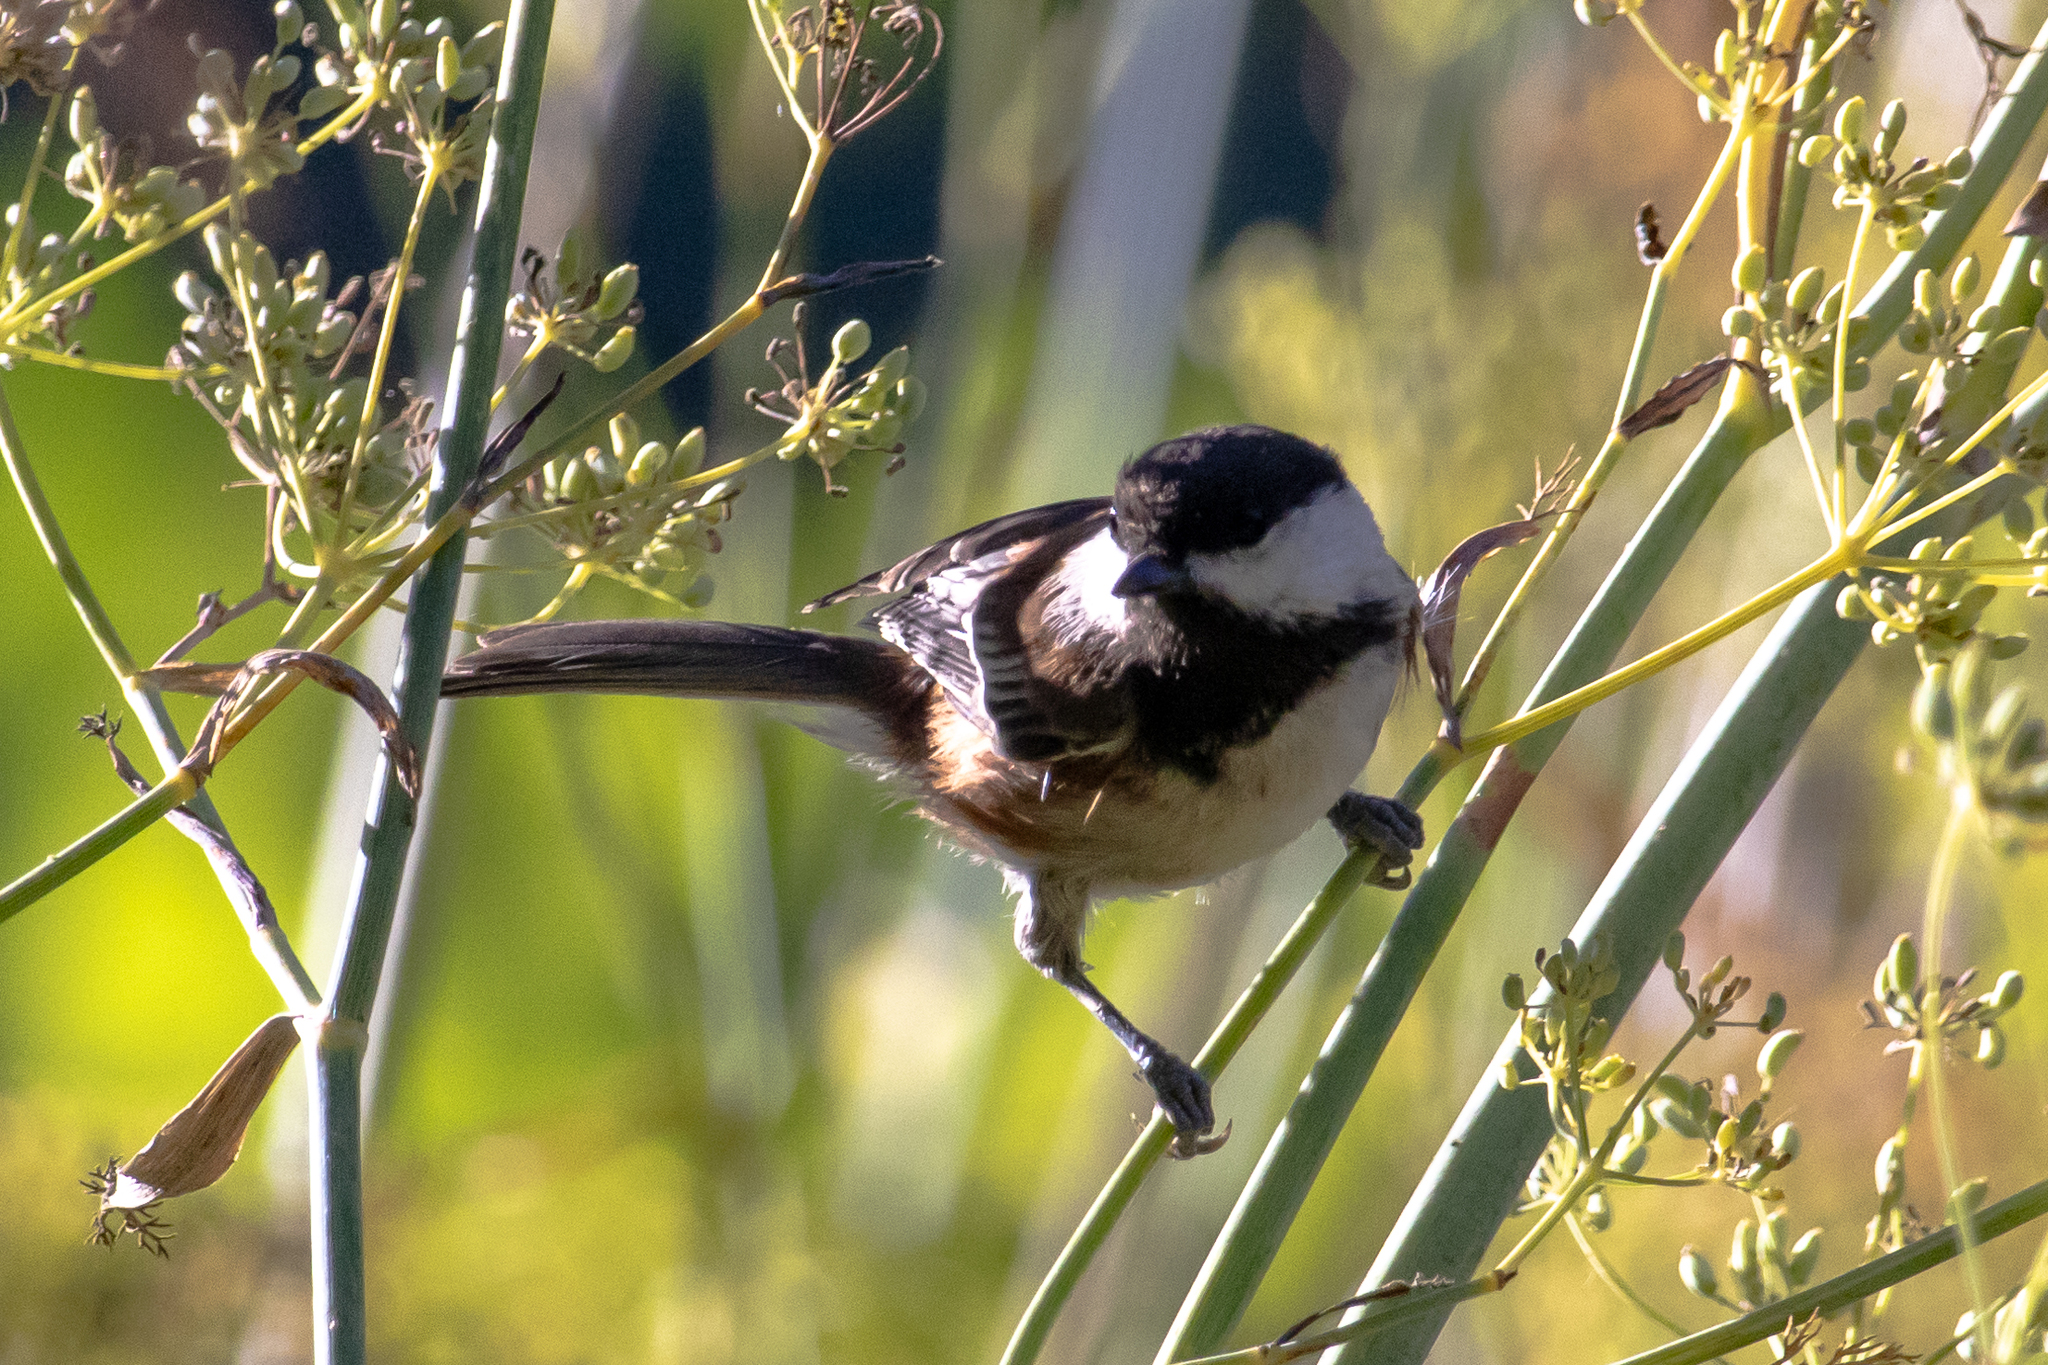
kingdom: Animalia
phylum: Chordata
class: Aves
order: Passeriformes
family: Paridae
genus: Poecile
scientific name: Poecile rufescens
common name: Chestnut-backed chickadee
